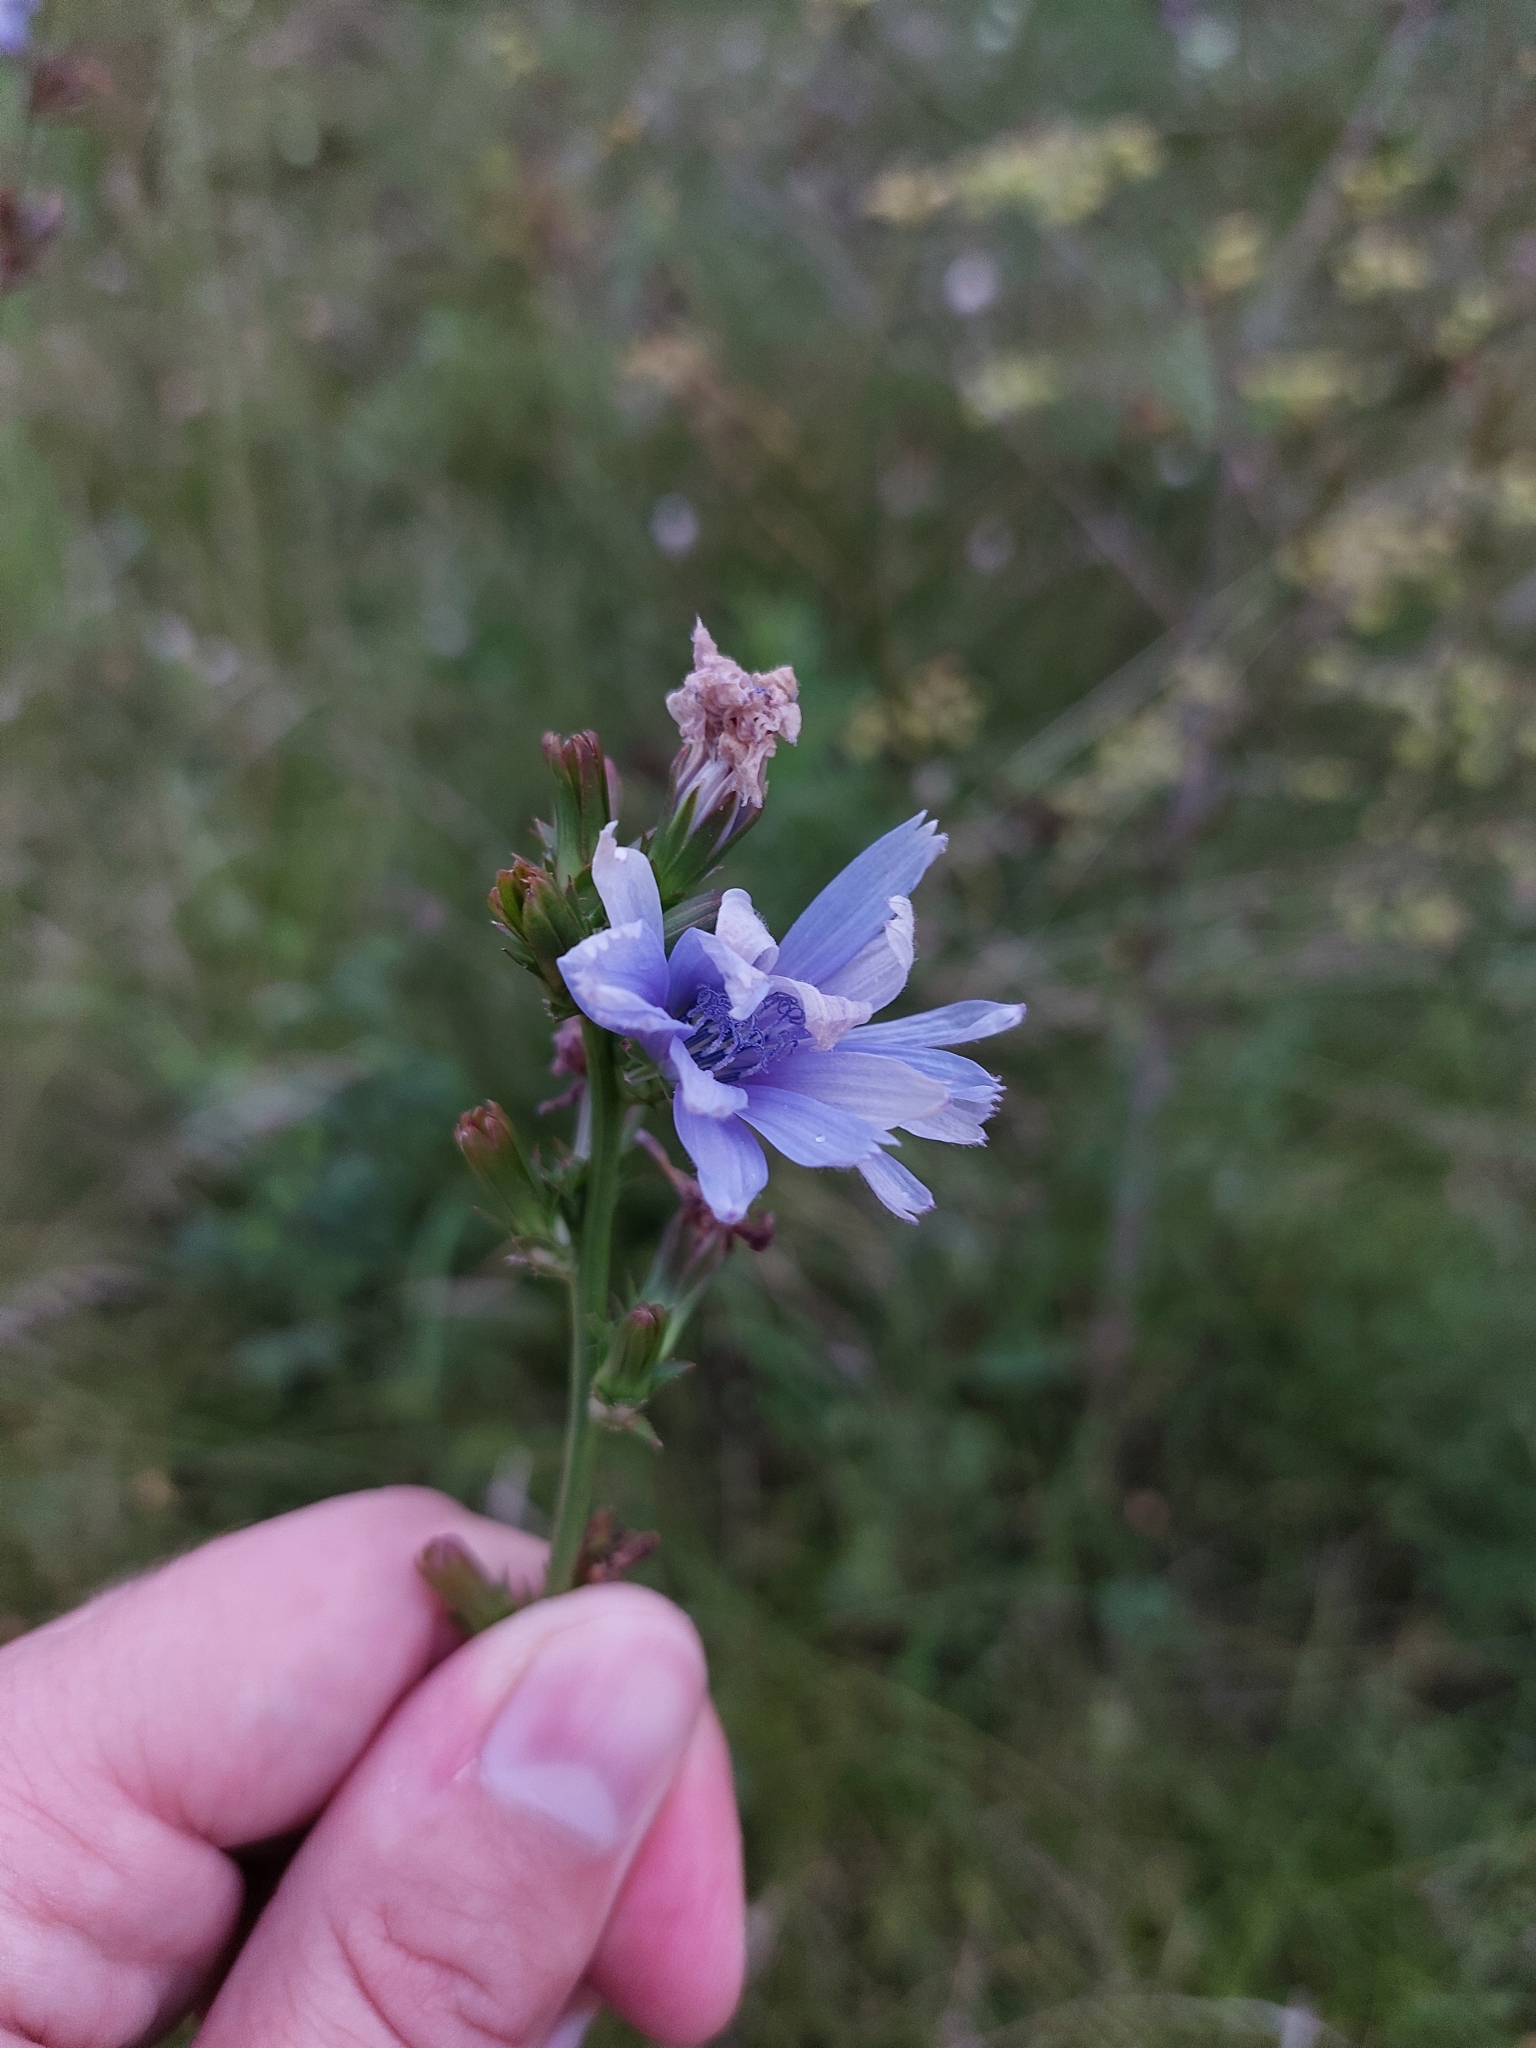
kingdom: Plantae
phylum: Tracheophyta
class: Magnoliopsida
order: Asterales
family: Asteraceae
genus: Cichorium
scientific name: Cichorium intybus
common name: Chicory
